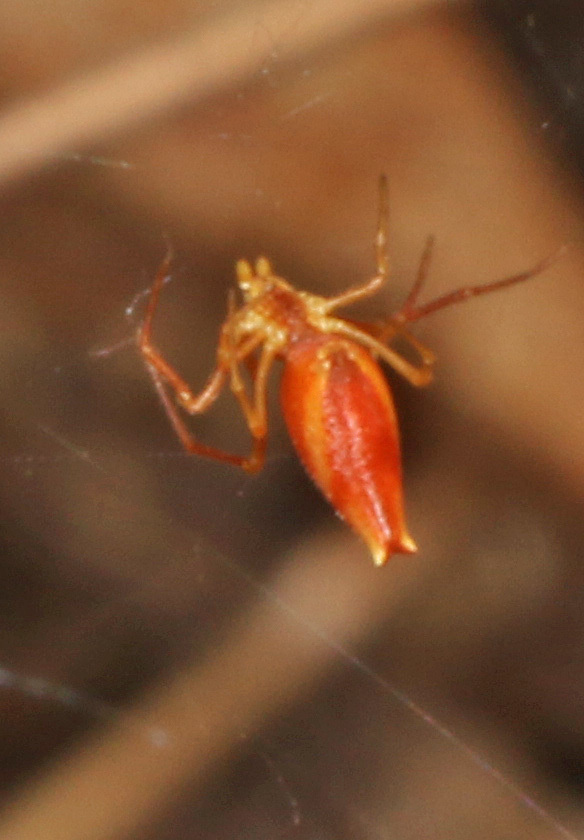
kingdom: Animalia
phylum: Arthropoda
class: Arachnida
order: Araneae
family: Theridiidae
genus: Neospintharus
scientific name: Neospintharus trigonum
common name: Horned parasitic cobweaver
